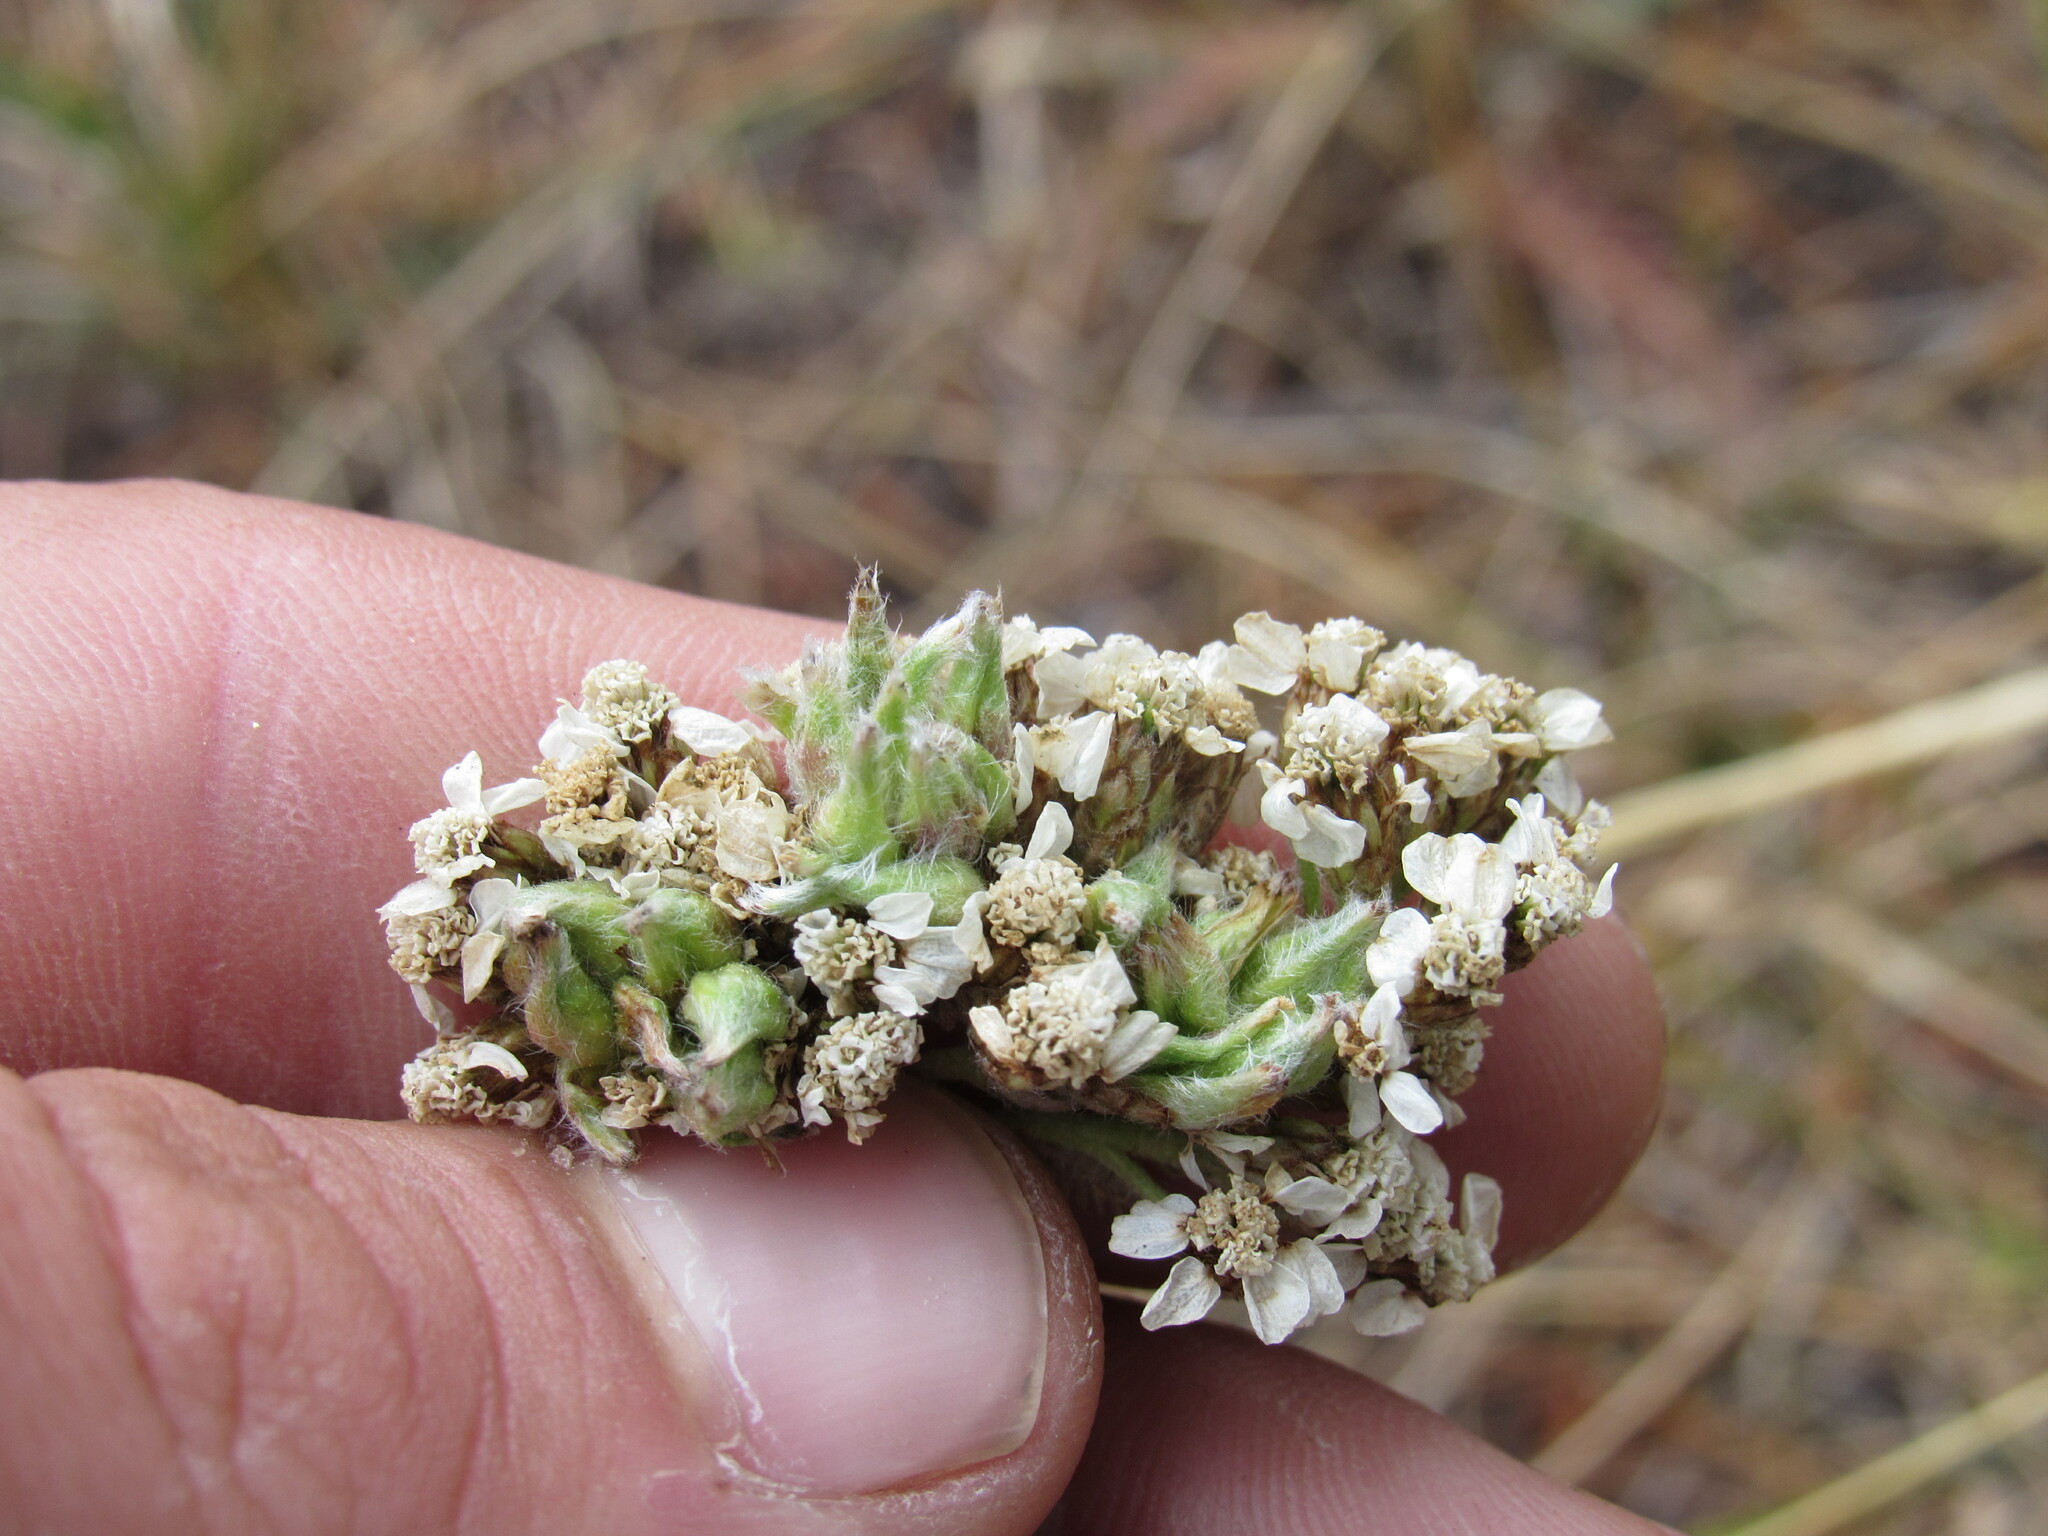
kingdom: Animalia
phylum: Arthropoda
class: Arachnida
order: Trombidiformes
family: Eriophyidae
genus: Aceria
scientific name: Aceria kiefferi
